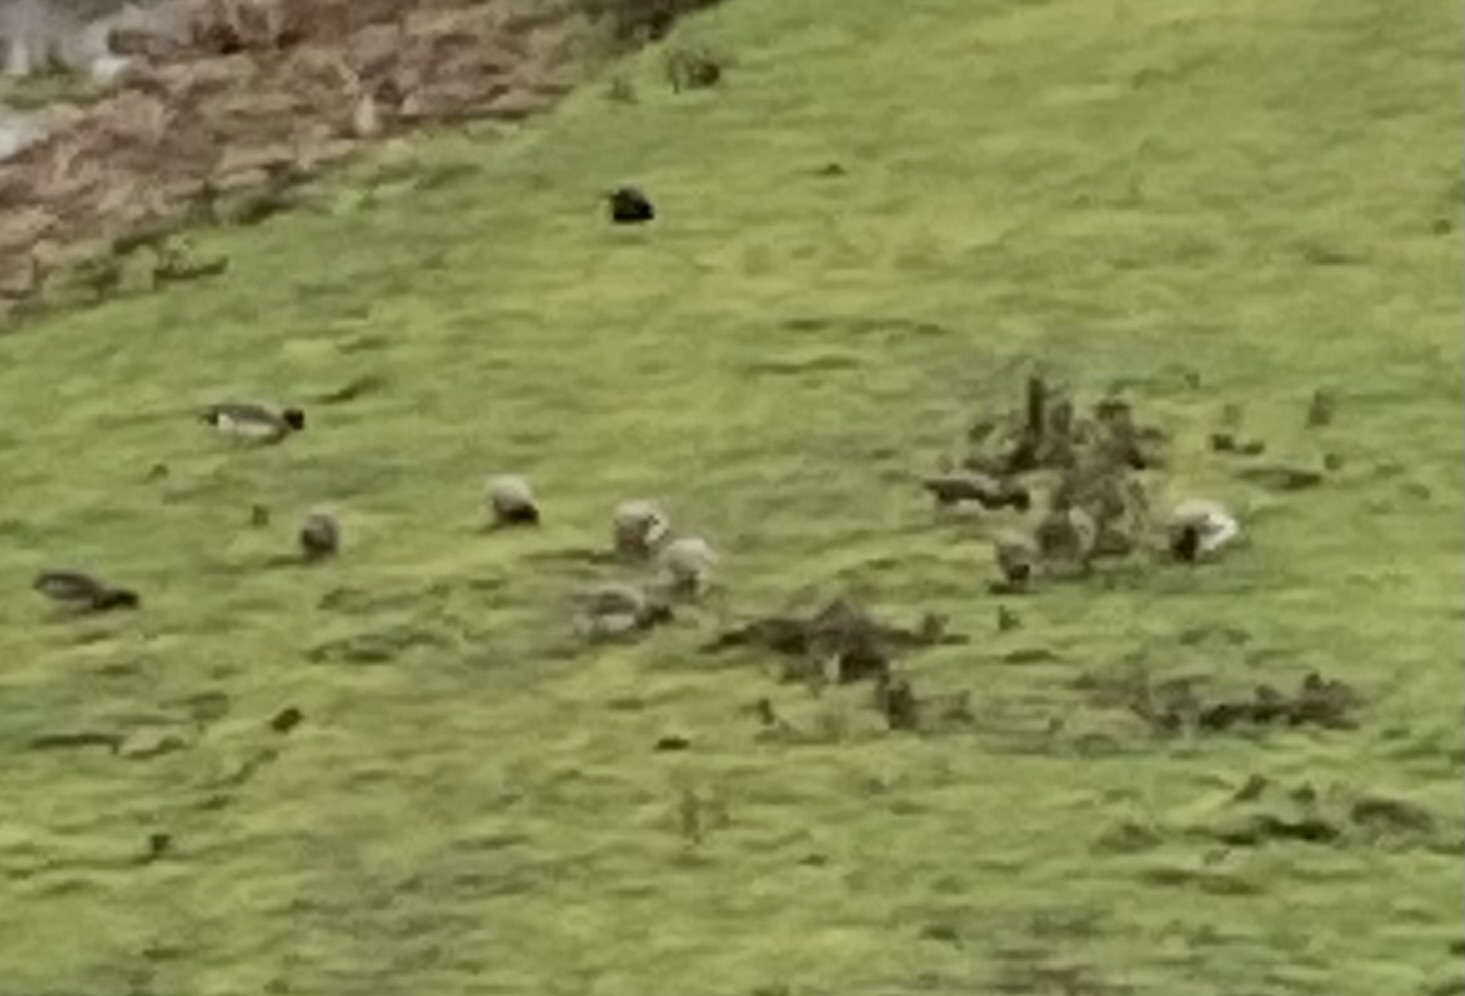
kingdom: Animalia
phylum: Chordata
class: Aves
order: Anseriformes
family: Anatidae
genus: Mareca
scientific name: Mareca penelope
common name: Eurasian wigeon
